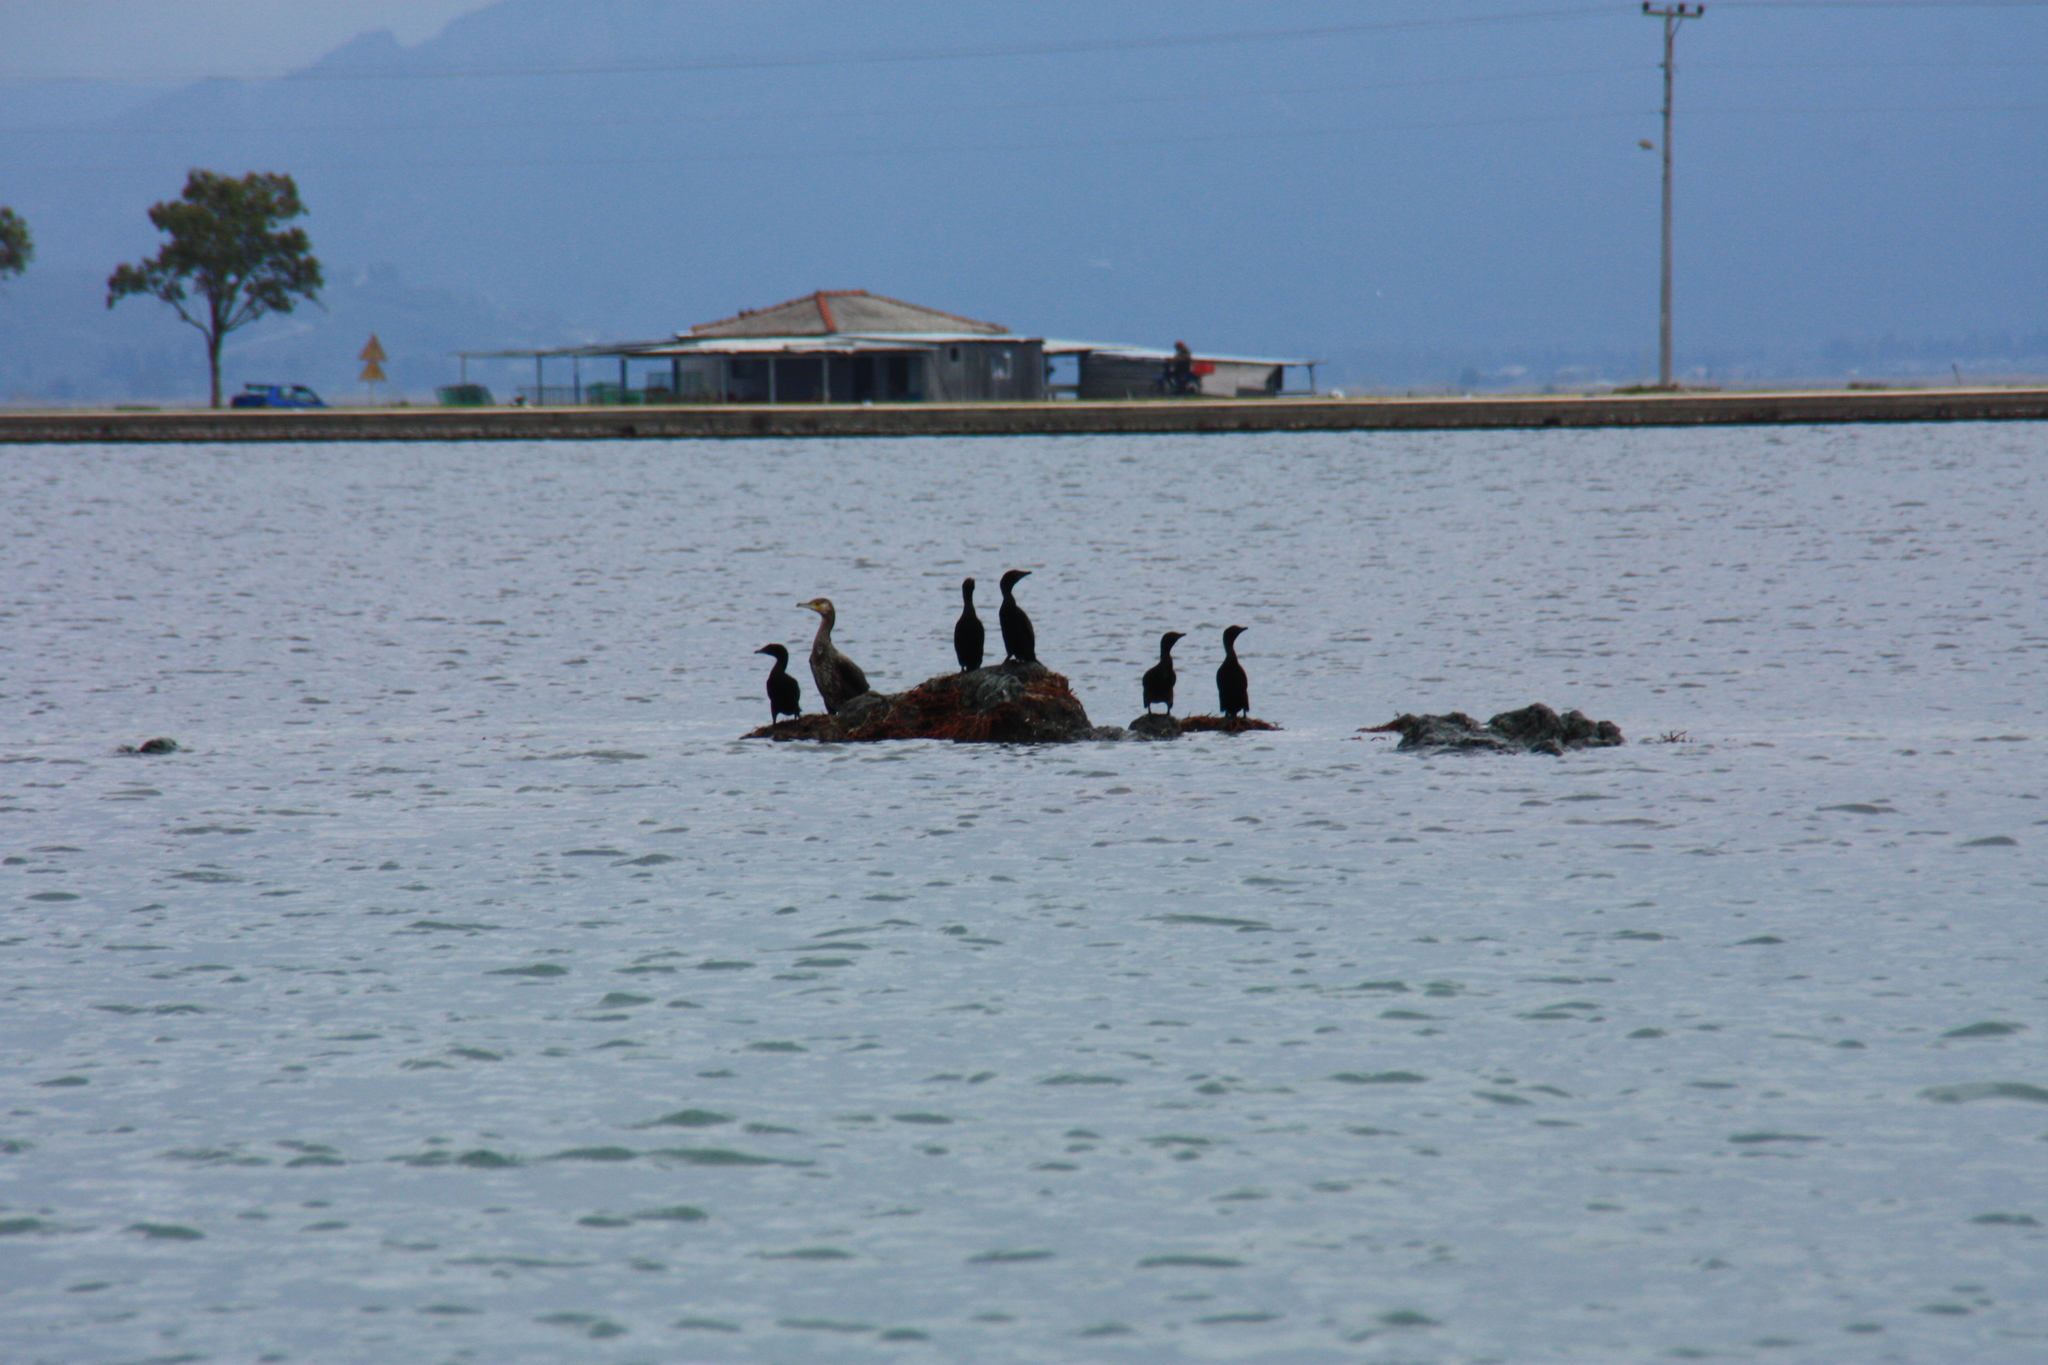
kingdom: Animalia
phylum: Chordata
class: Aves
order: Suliformes
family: Phalacrocoracidae
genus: Phalacrocorax
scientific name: Phalacrocorax carbo
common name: Great cormorant
